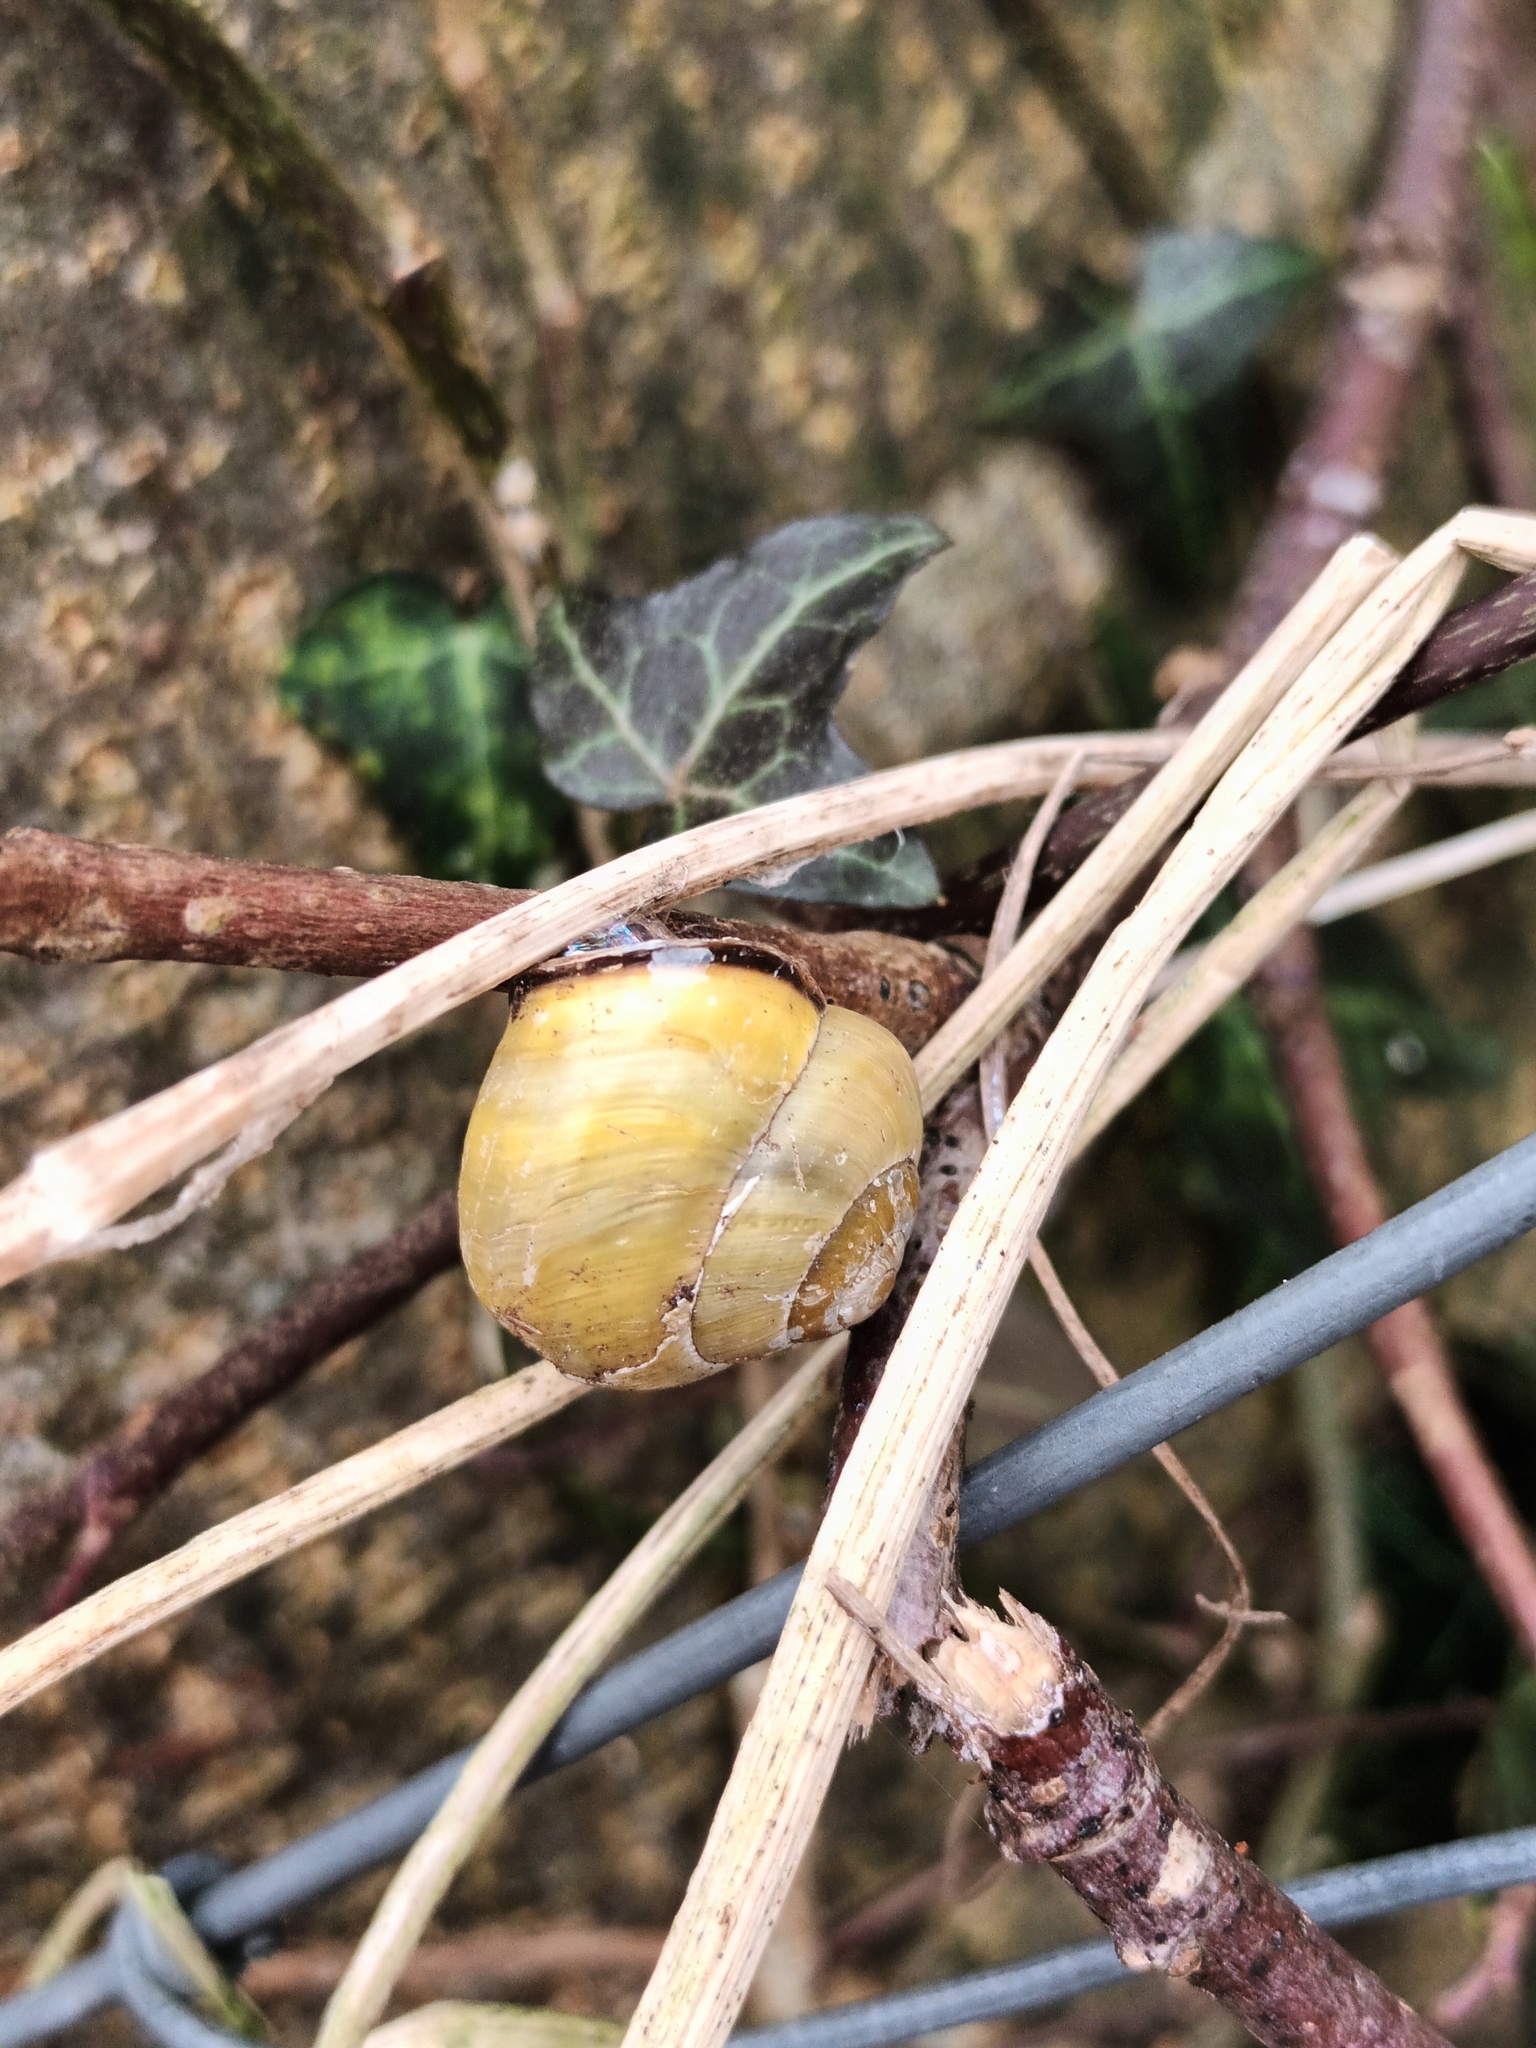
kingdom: Animalia
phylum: Mollusca
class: Gastropoda
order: Stylommatophora
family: Helicidae
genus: Cepaea
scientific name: Cepaea nemoralis
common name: Grovesnail
